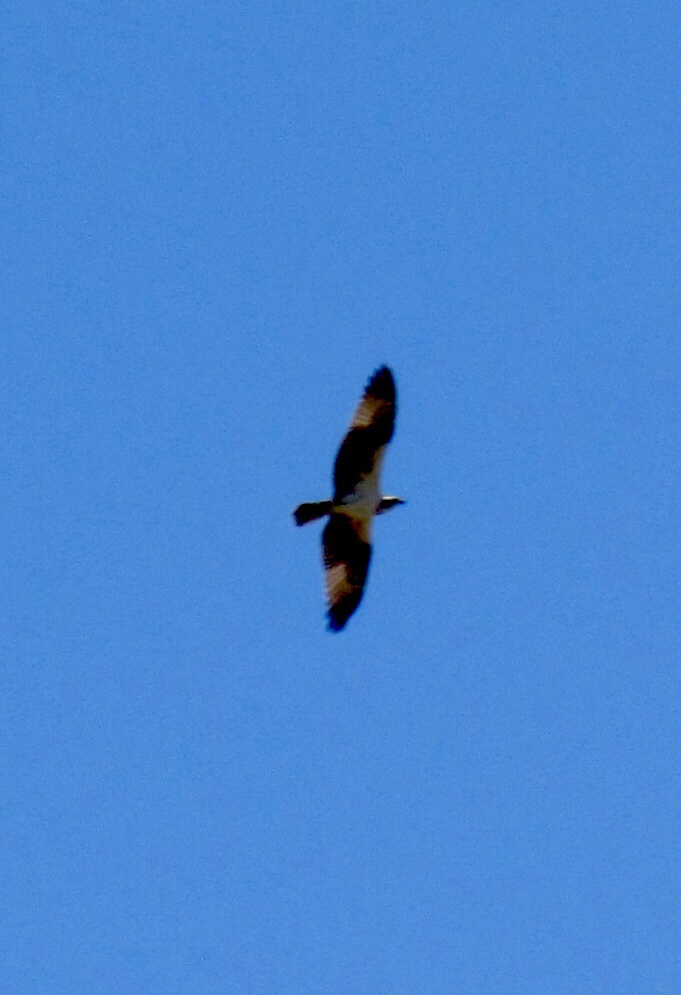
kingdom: Animalia
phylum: Chordata
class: Aves
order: Accipitriformes
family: Pandionidae
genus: Pandion
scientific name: Pandion haliaetus
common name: Osprey
